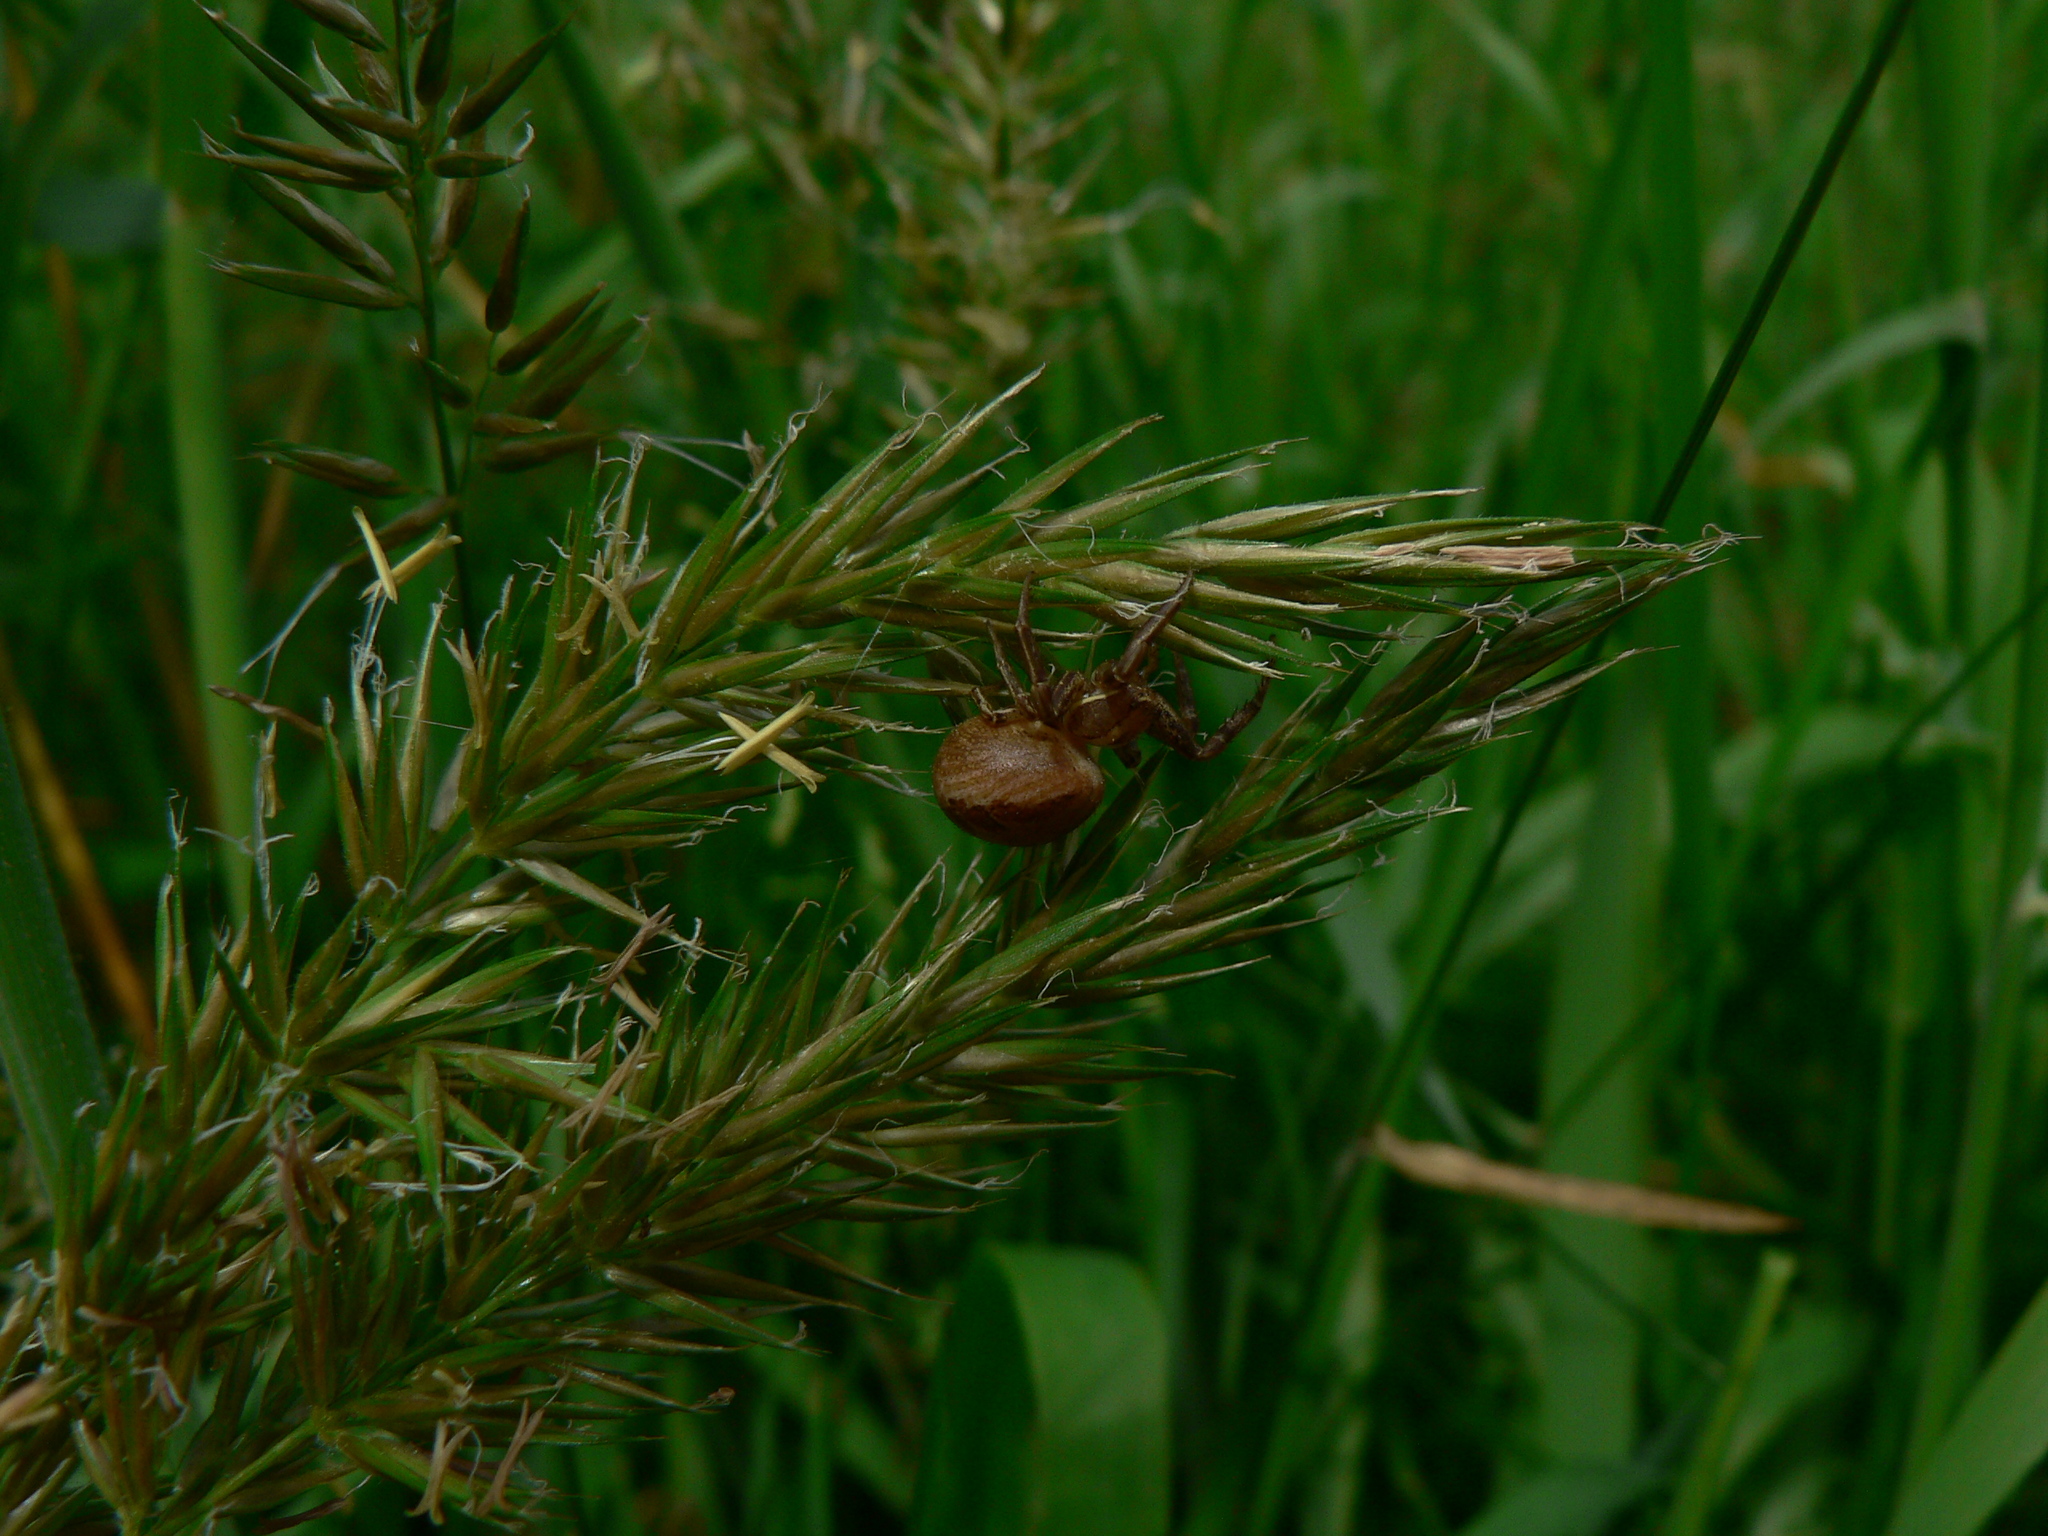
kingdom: Animalia
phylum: Arthropoda
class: Arachnida
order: Araneae
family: Thomisidae
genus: Xysticus
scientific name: Xysticus
